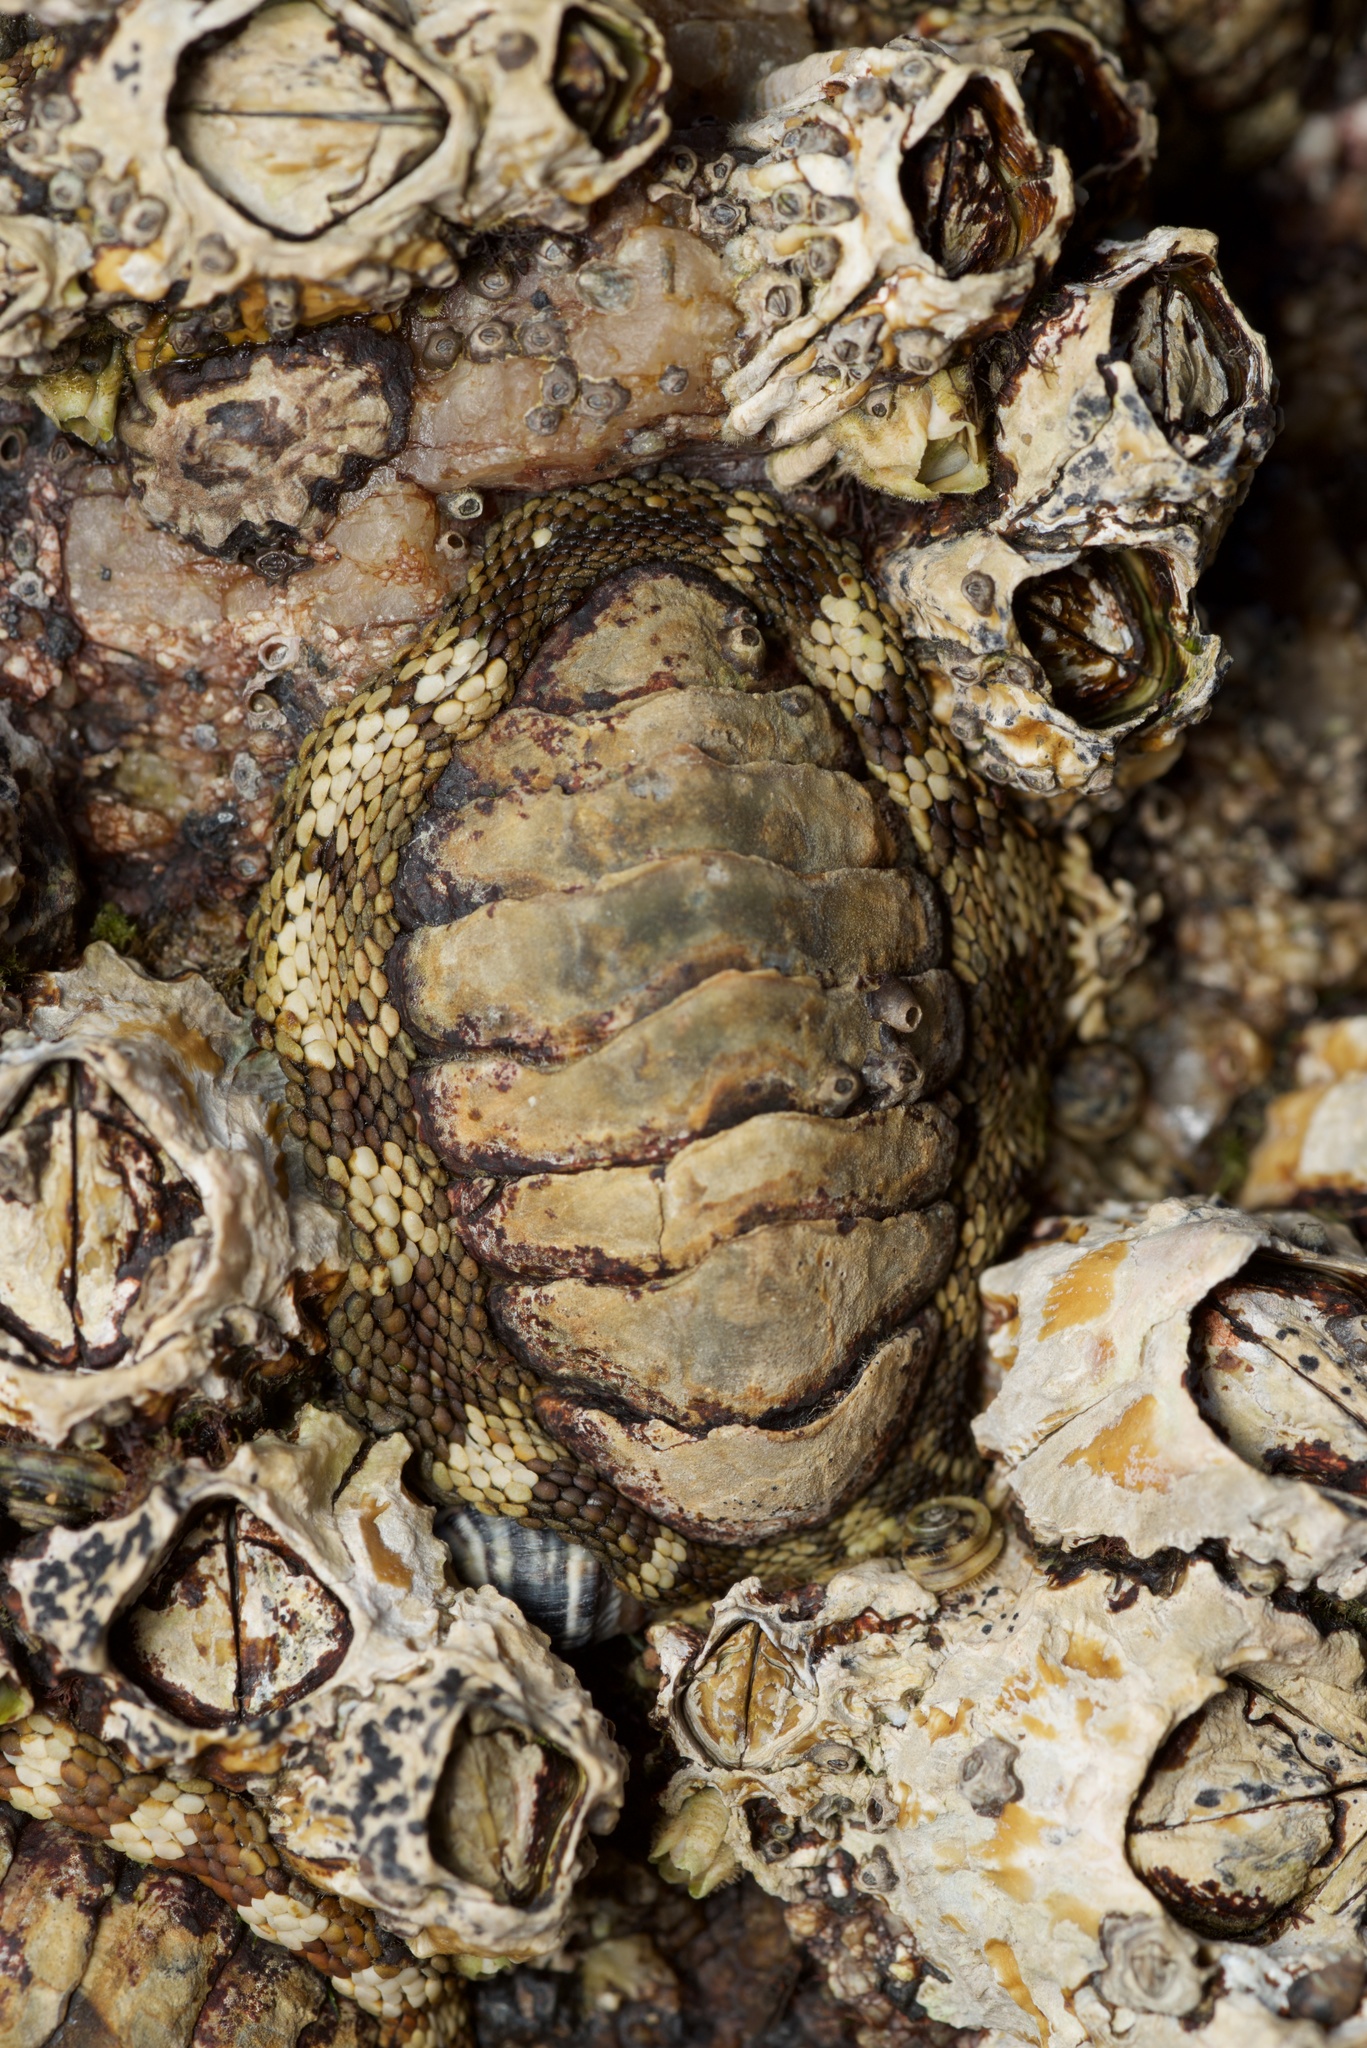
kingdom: Animalia
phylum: Mollusca
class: Polyplacophora
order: Chitonida
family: Chitonidae
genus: Sypharochiton
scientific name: Sypharochiton pelliserpentis
